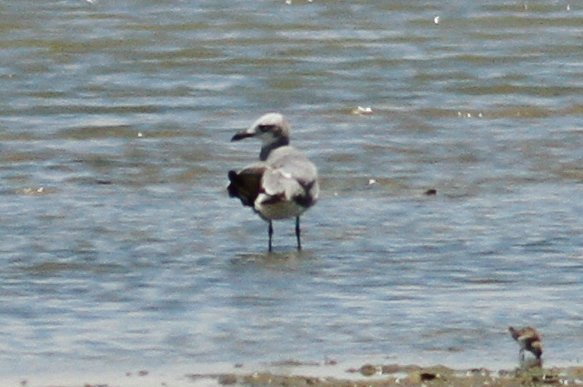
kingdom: Animalia
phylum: Chordata
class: Aves
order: Charadriiformes
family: Laridae
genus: Leucophaeus
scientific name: Leucophaeus atricilla
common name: Laughing gull
